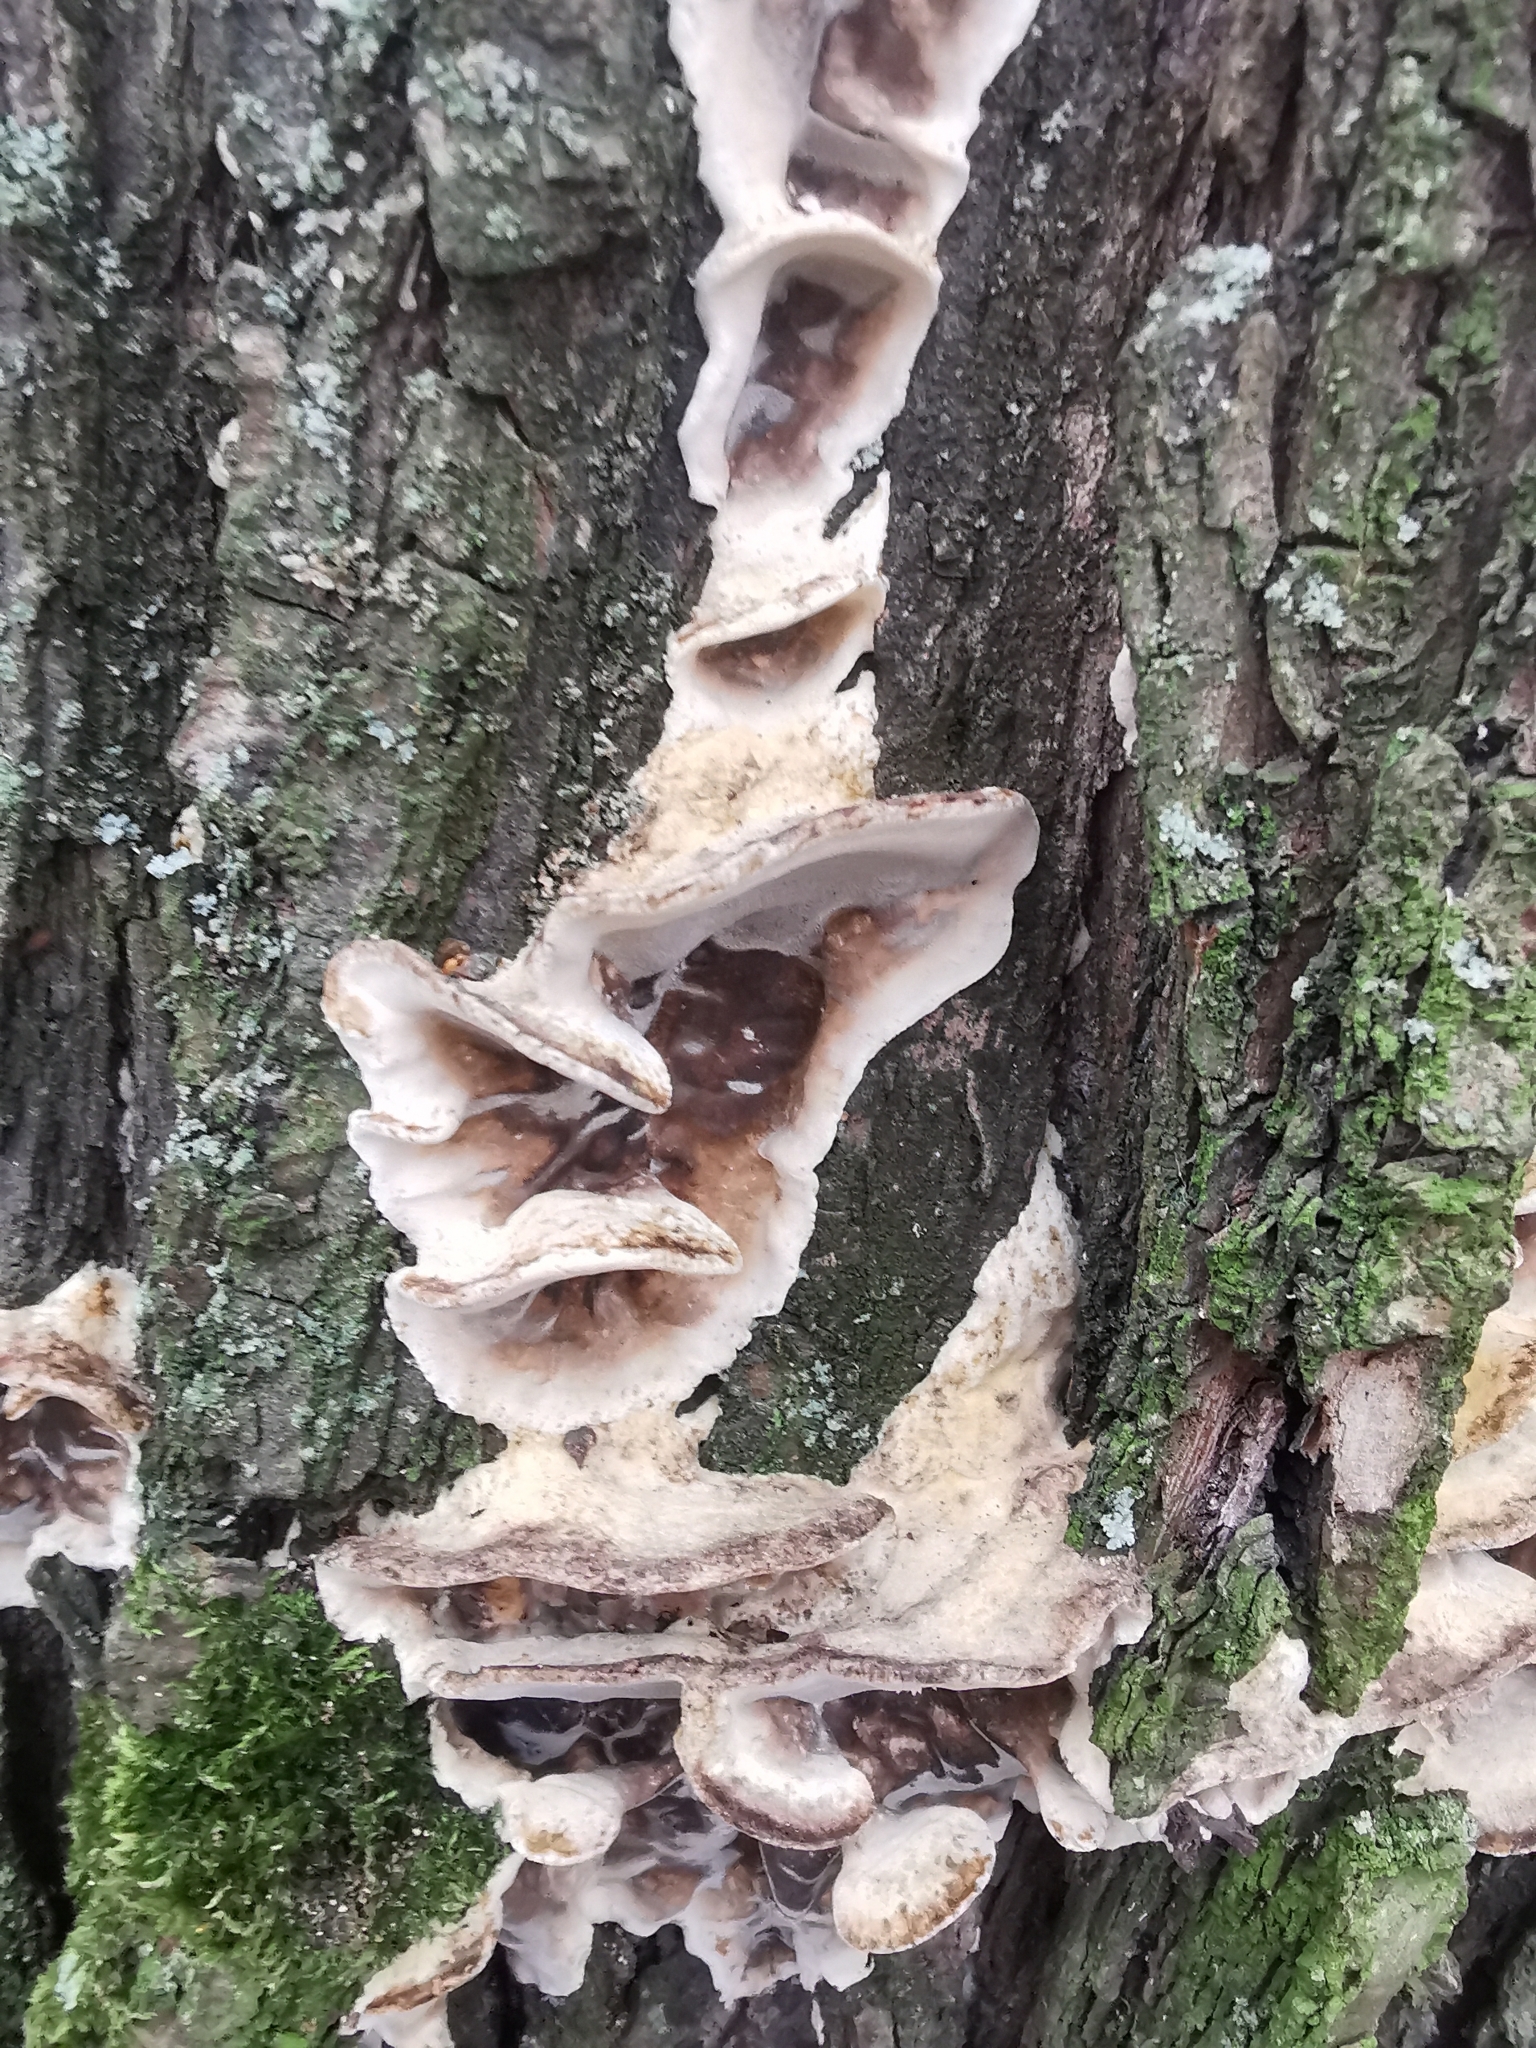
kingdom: Fungi
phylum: Basidiomycota
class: Agaricomycetes
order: Polyporales
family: Phanerochaetaceae
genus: Bjerkandera
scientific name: Bjerkandera adusta
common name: Smoky bracket
